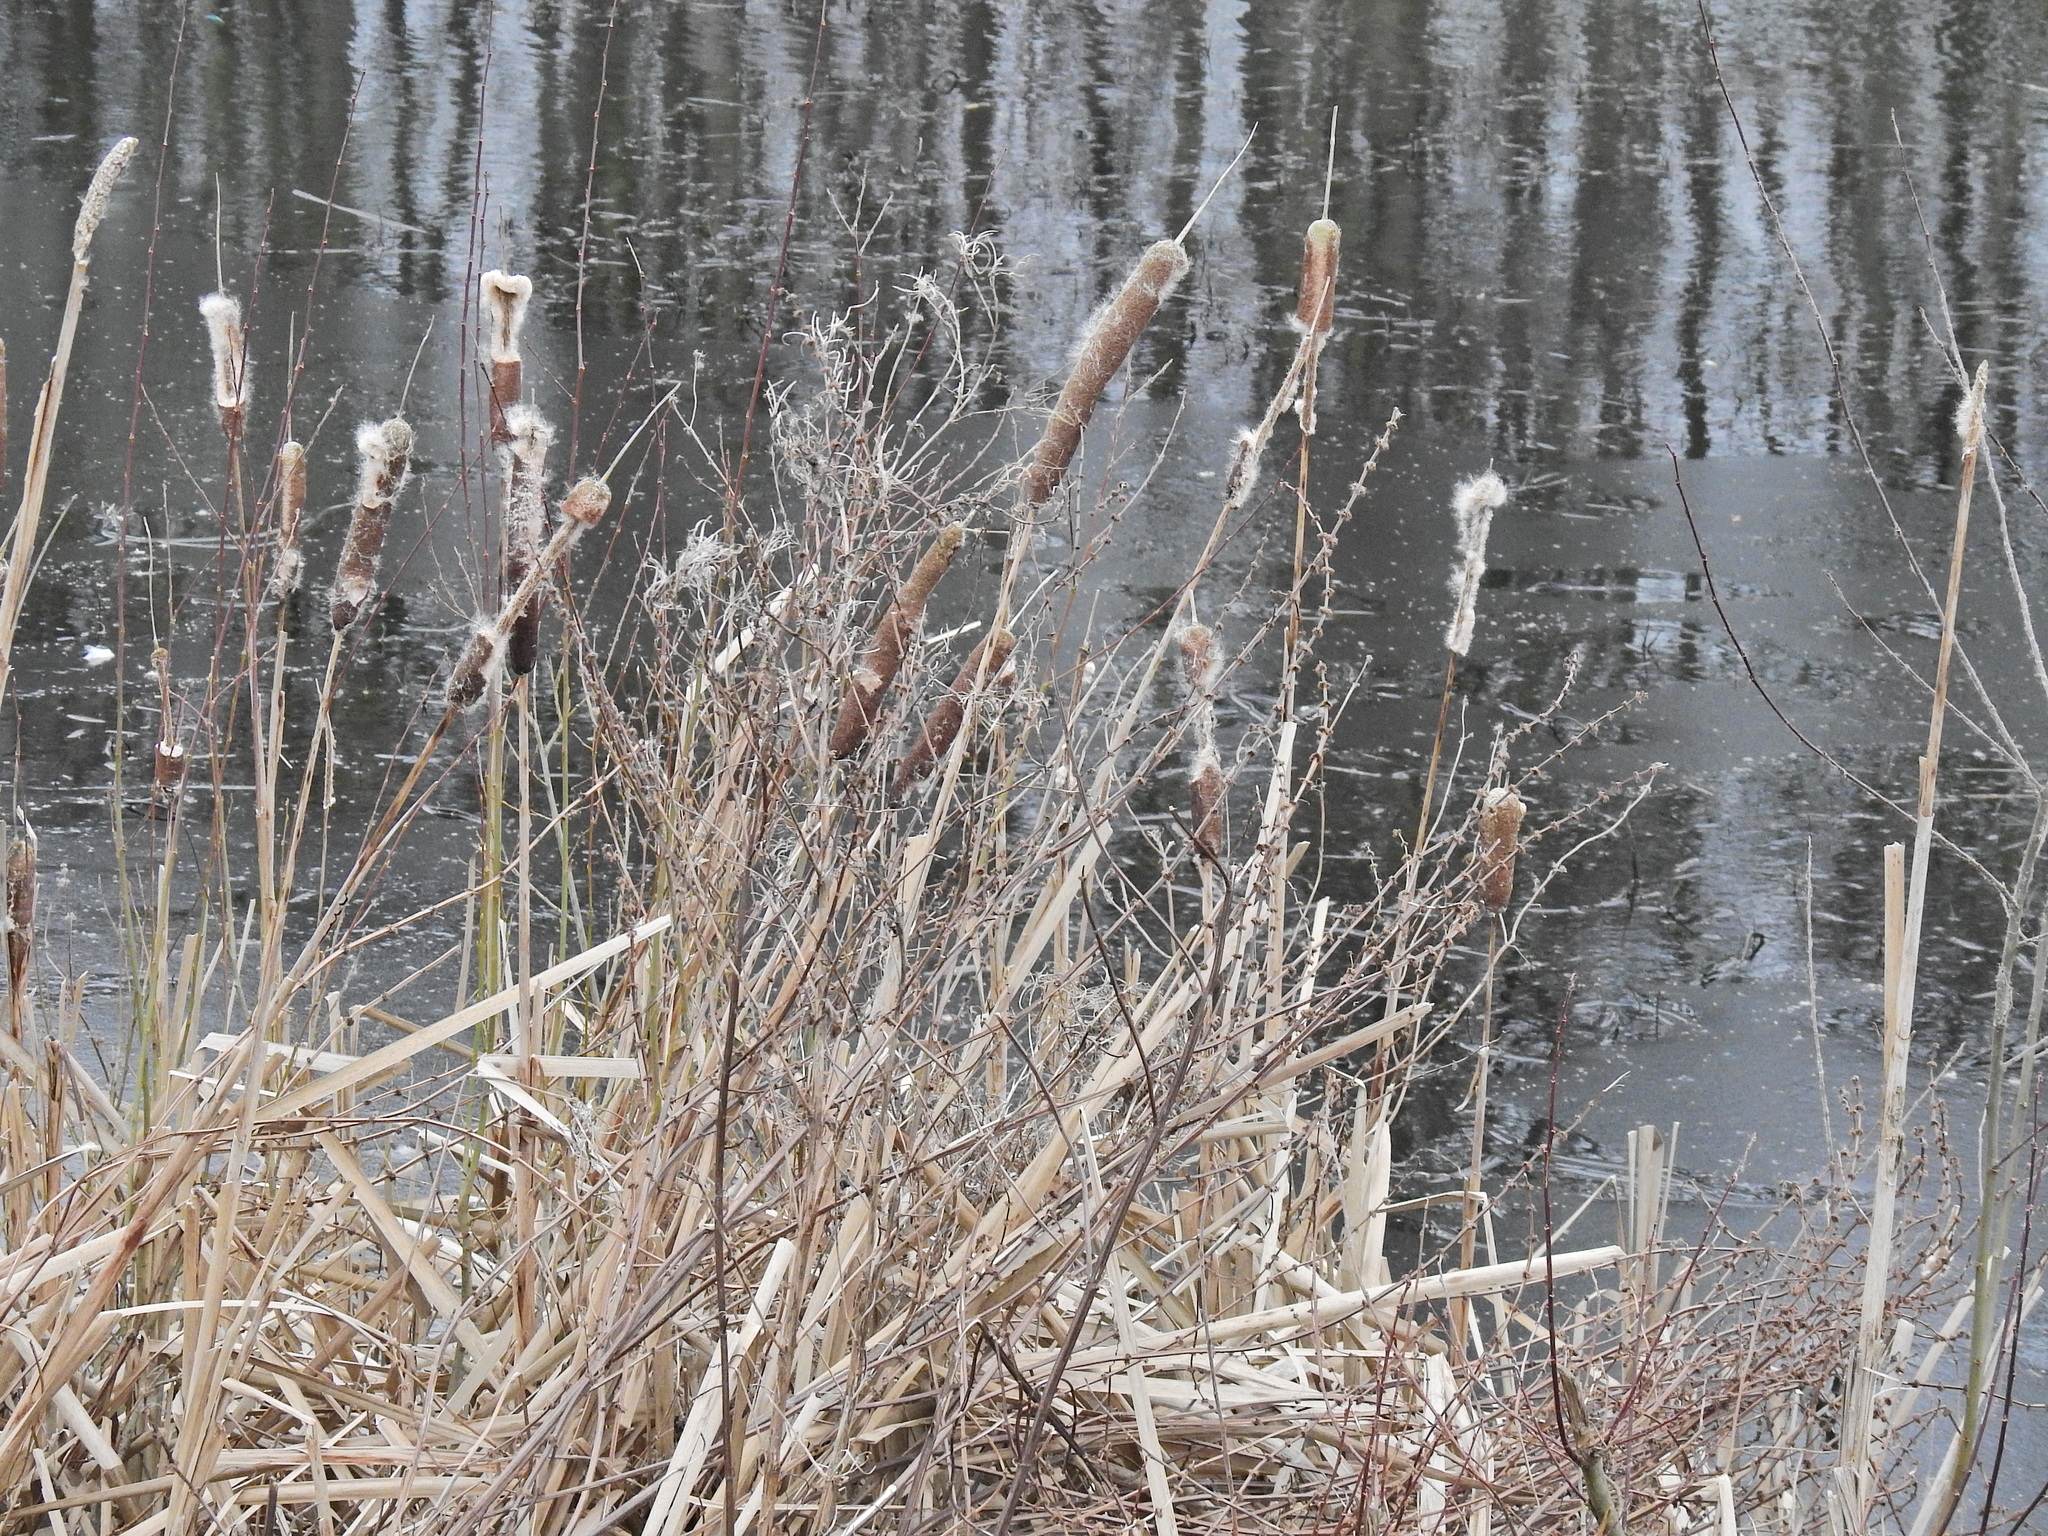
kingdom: Plantae
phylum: Tracheophyta
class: Liliopsida
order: Poales
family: Typhaceae
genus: Typha
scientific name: Typha latifolia
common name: Broadleaf cattail
